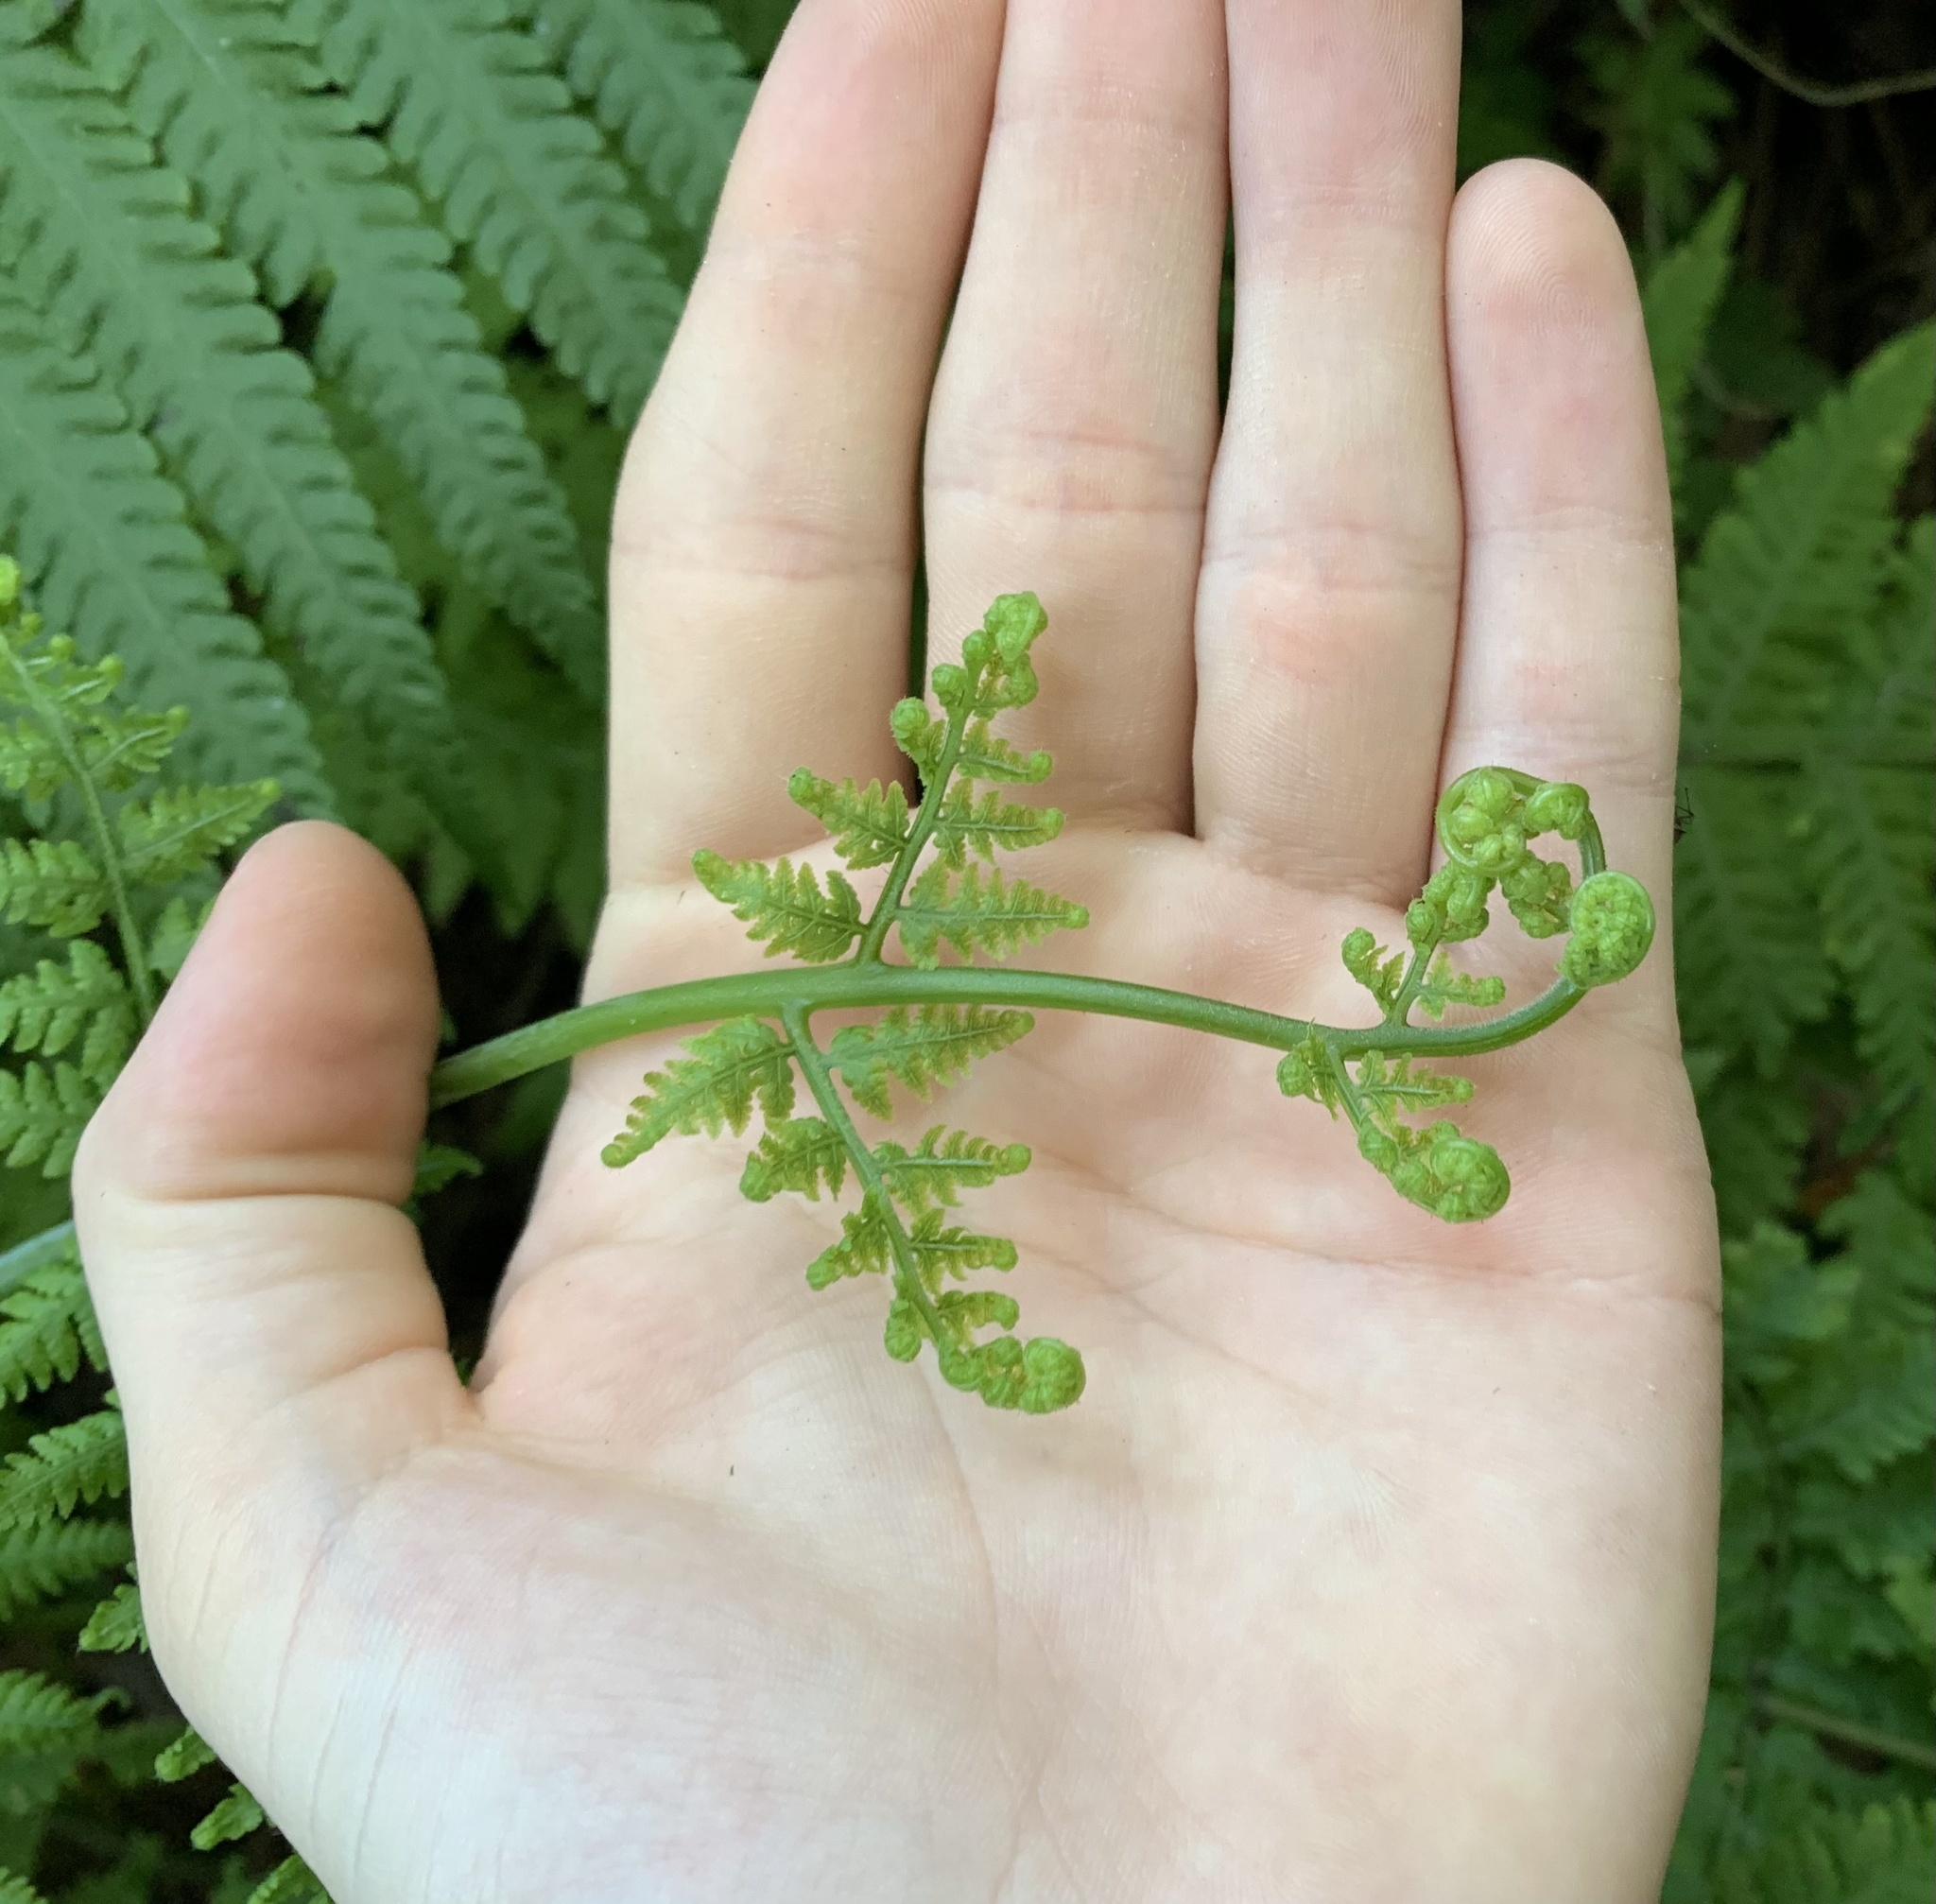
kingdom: Plantae
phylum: Tracheophyta
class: Polypodiopsida
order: Polypodiales
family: Thelypteridaceae
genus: Macrothelypteris
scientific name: Macrothelypteris torresiana
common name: Swordfern
